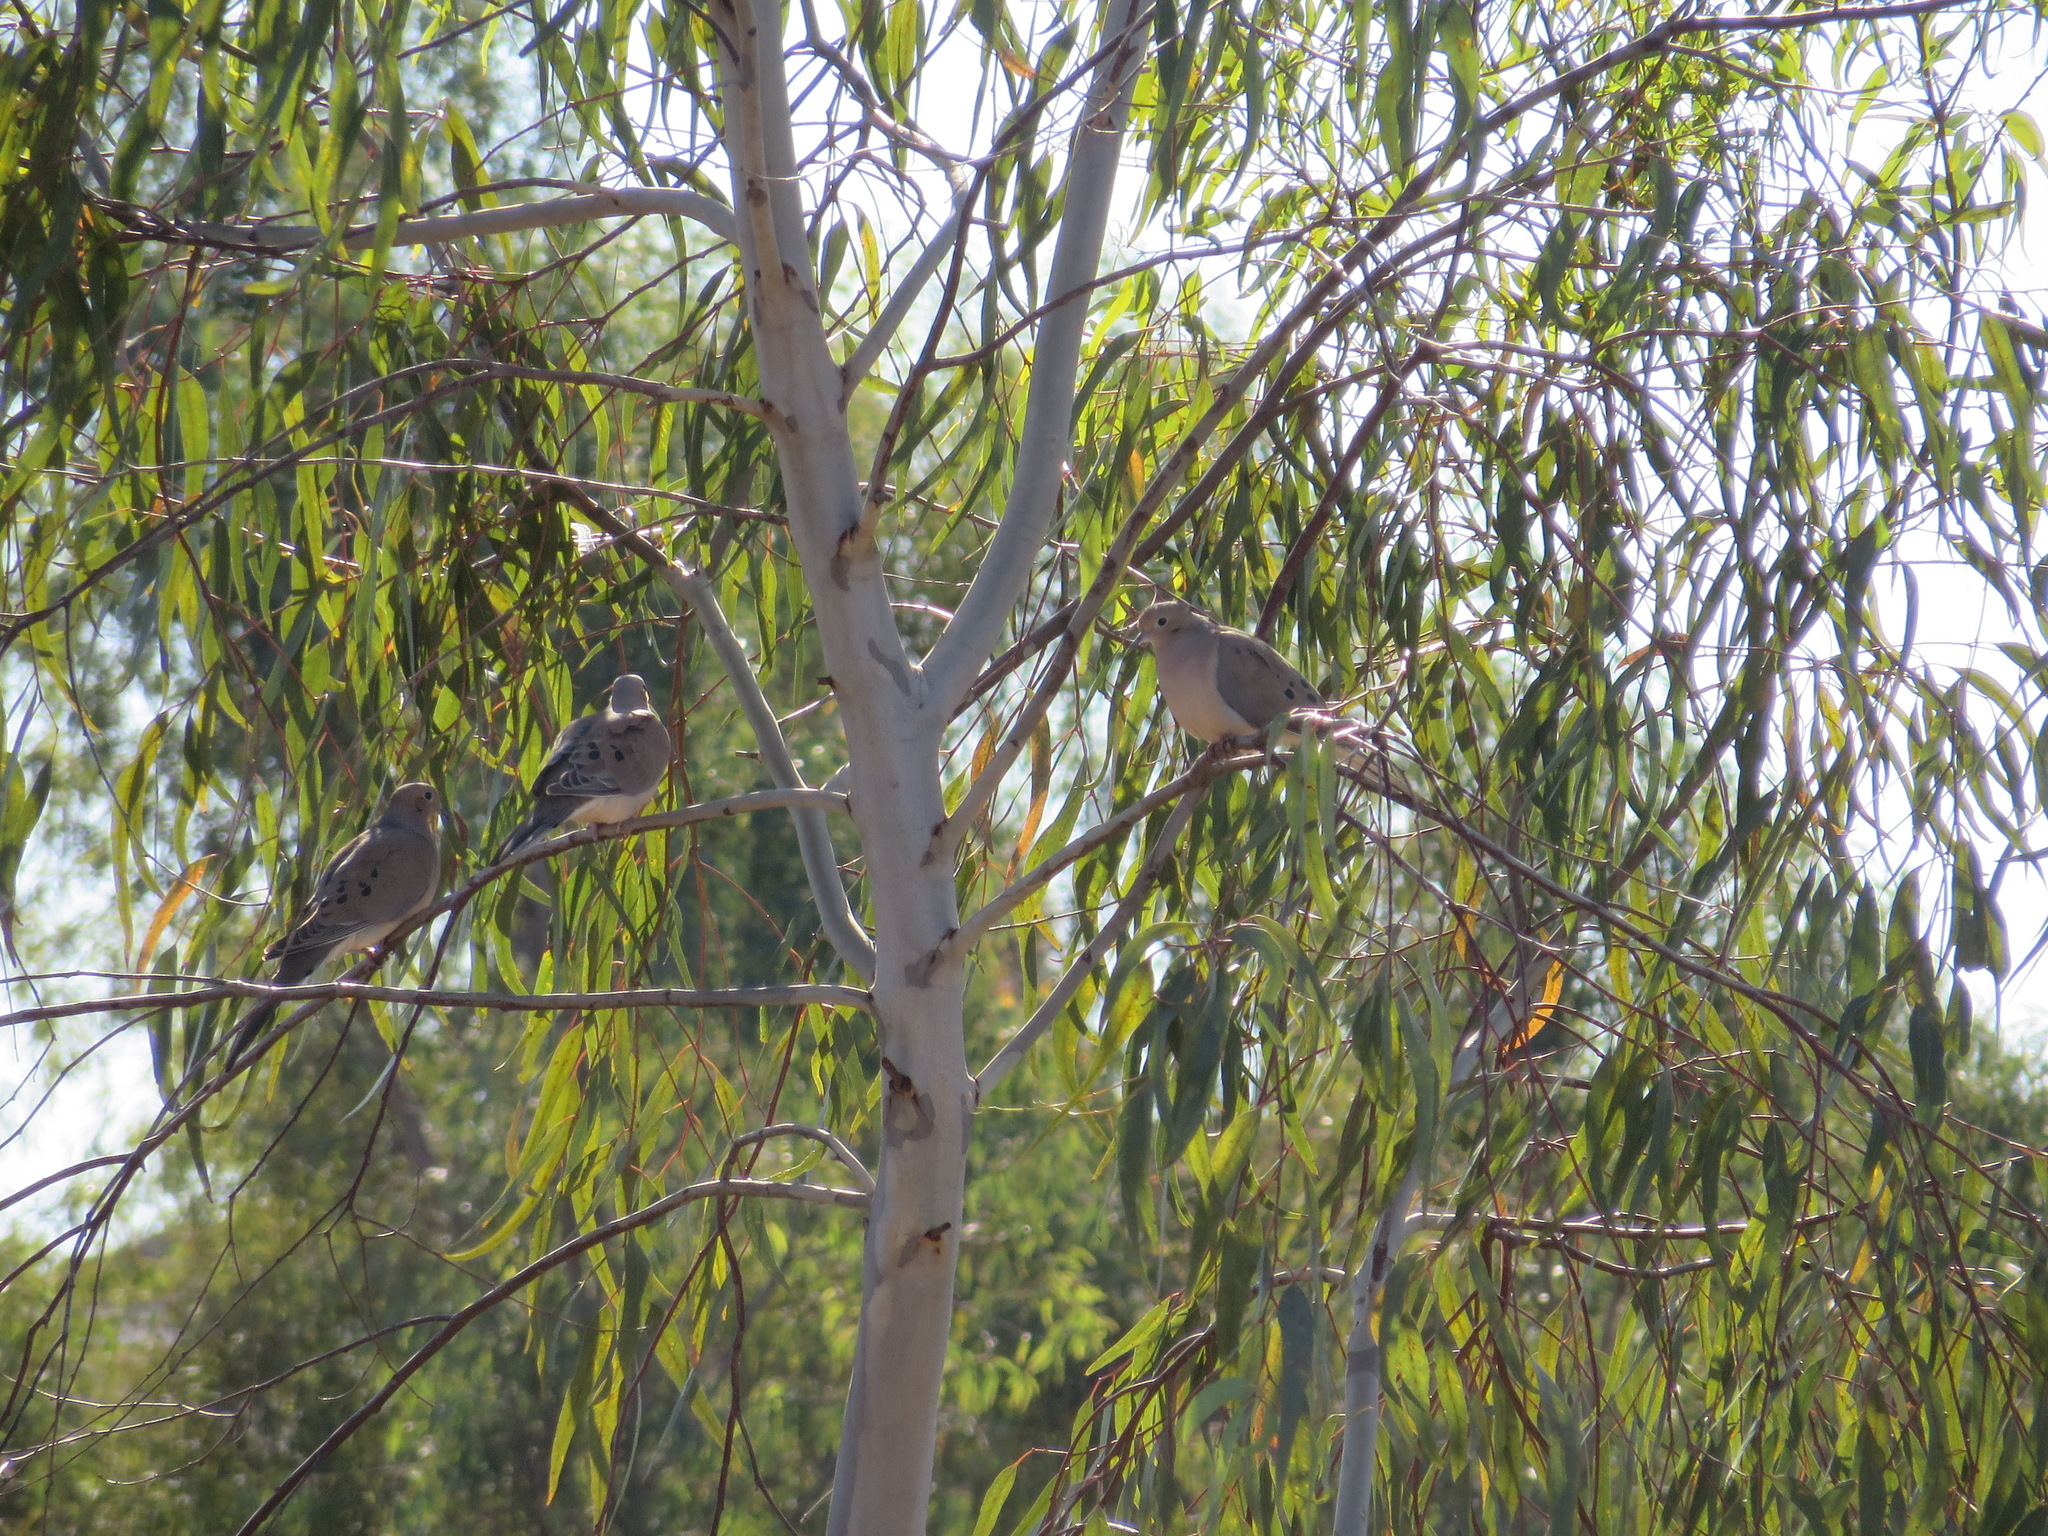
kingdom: Animalia
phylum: Chordata
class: Aves
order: Columbiformes
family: Columbidae
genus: Zenaida
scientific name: Zenaida macroura
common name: Mourning dove
